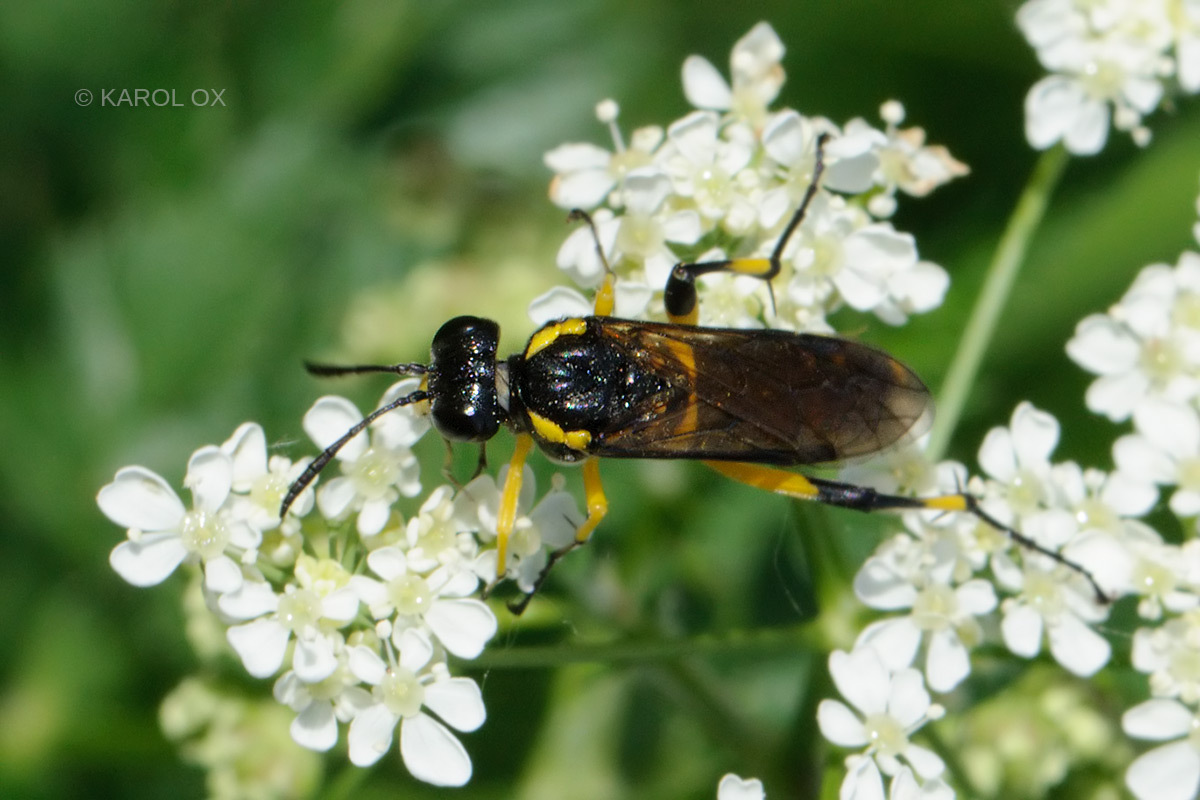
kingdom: Animalia
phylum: Arthropoda
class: Insecta
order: Hymenoptera
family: Tenthredinidae
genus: Macrophya
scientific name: Macrophya montana
